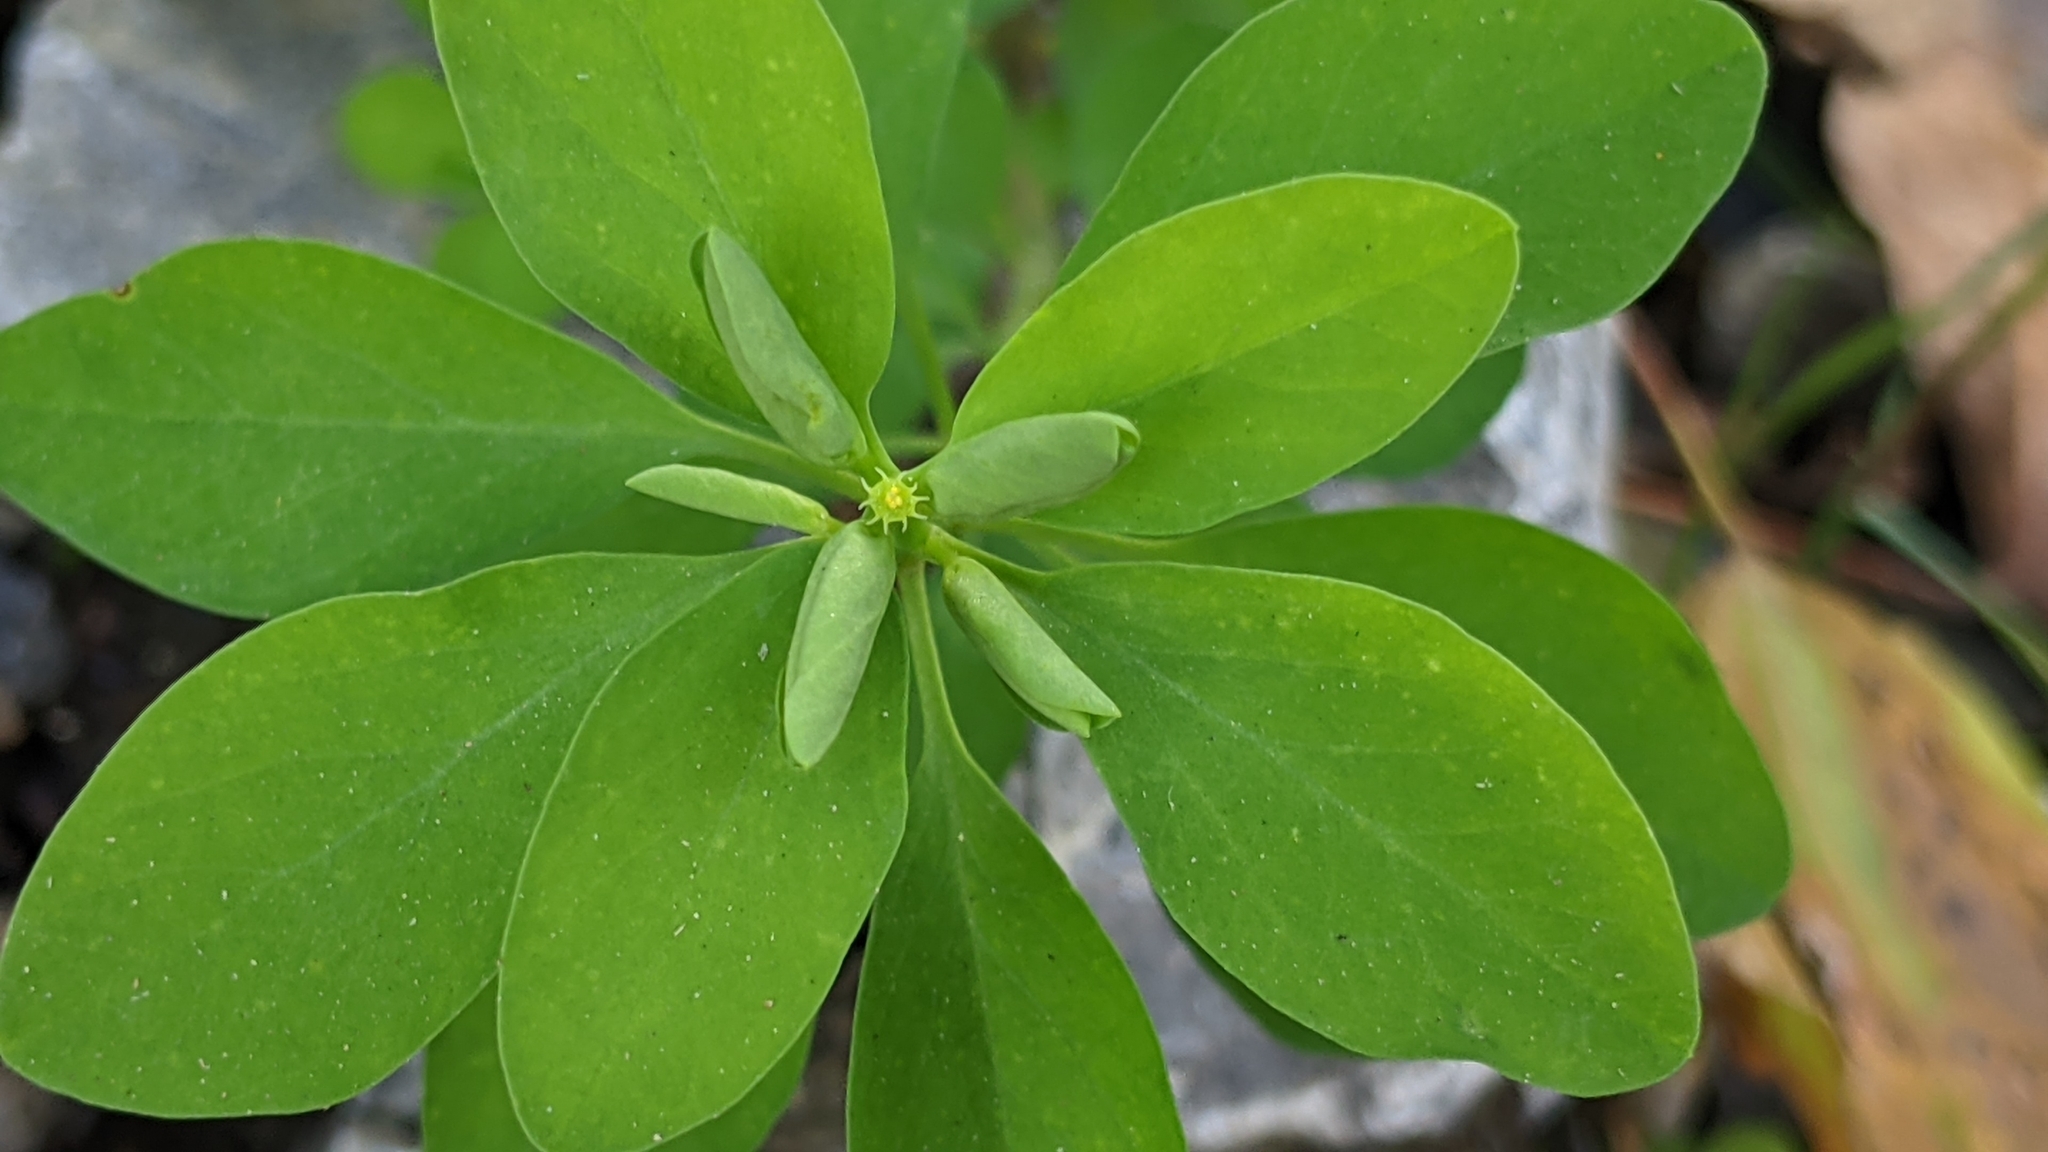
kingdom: Plantae
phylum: Tracheophyta
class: Magnoliopsida
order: Malpighiales
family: Euphorbiaceae
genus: Euphorbia
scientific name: Euphorbia peplus
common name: Petty spurge
